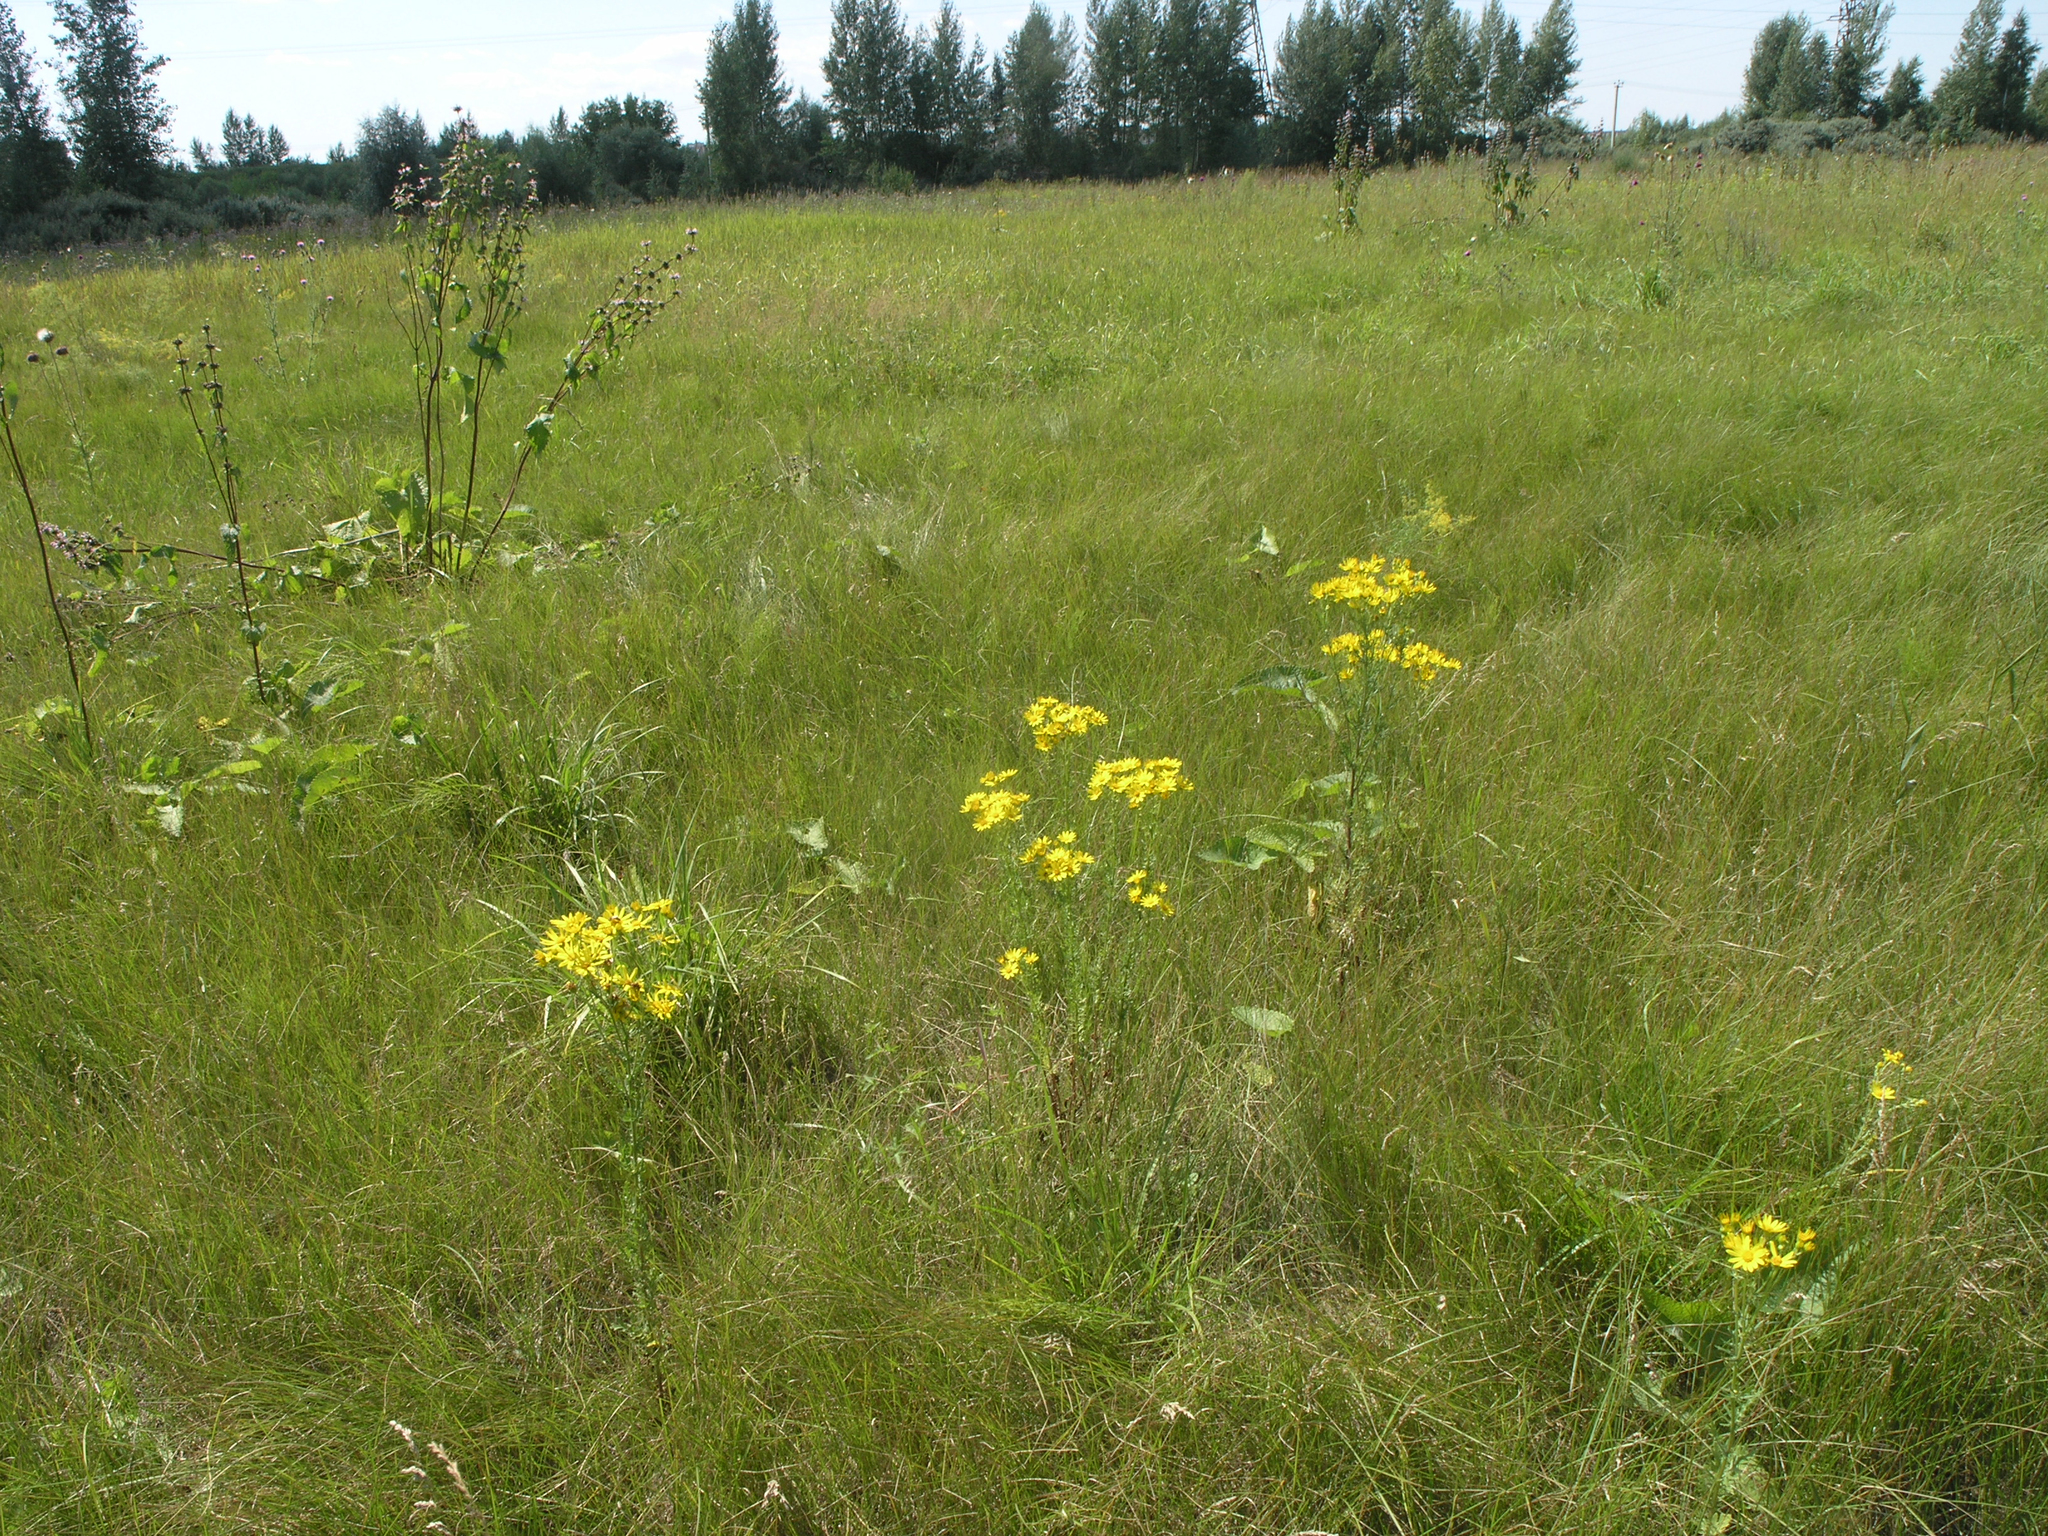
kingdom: Plantae
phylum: Tracheophyta
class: Magnoliopsida
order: Asterales
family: Asteraceae
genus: Jacobaea
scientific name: Jacobaea erucifolia
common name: Hoary ragwort
